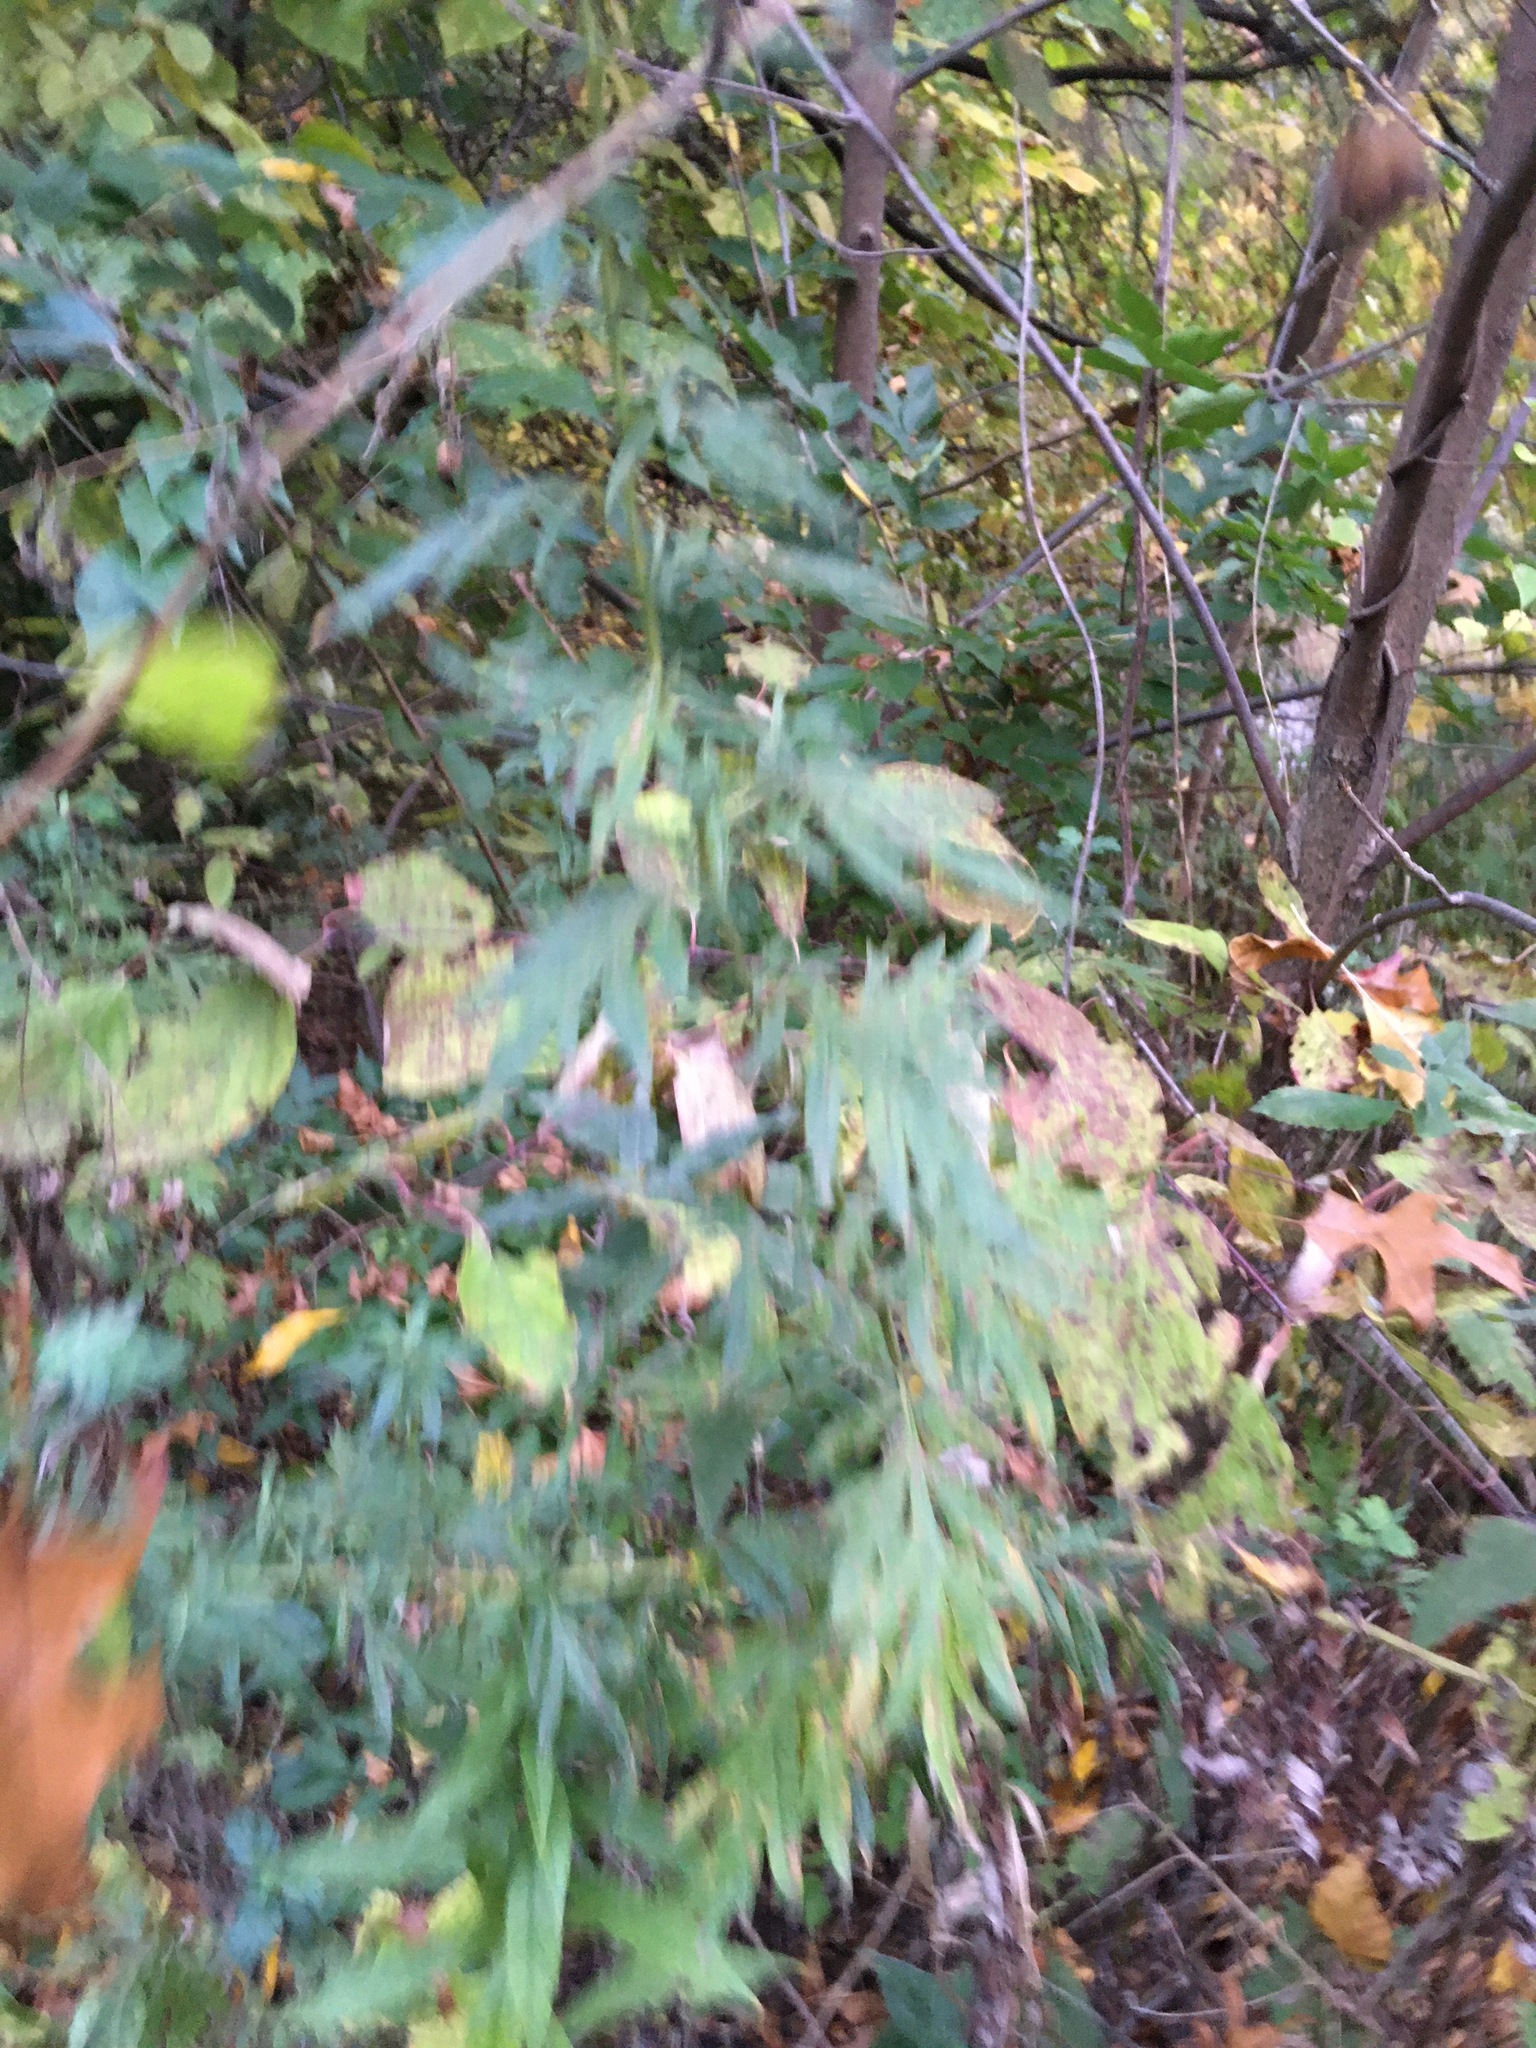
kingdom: Plantae
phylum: Tracheophyta
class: Magnoliopsida
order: Asterales
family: Asteraceae
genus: Artemisia
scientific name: Artemisia vulgaris
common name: Mugwort
